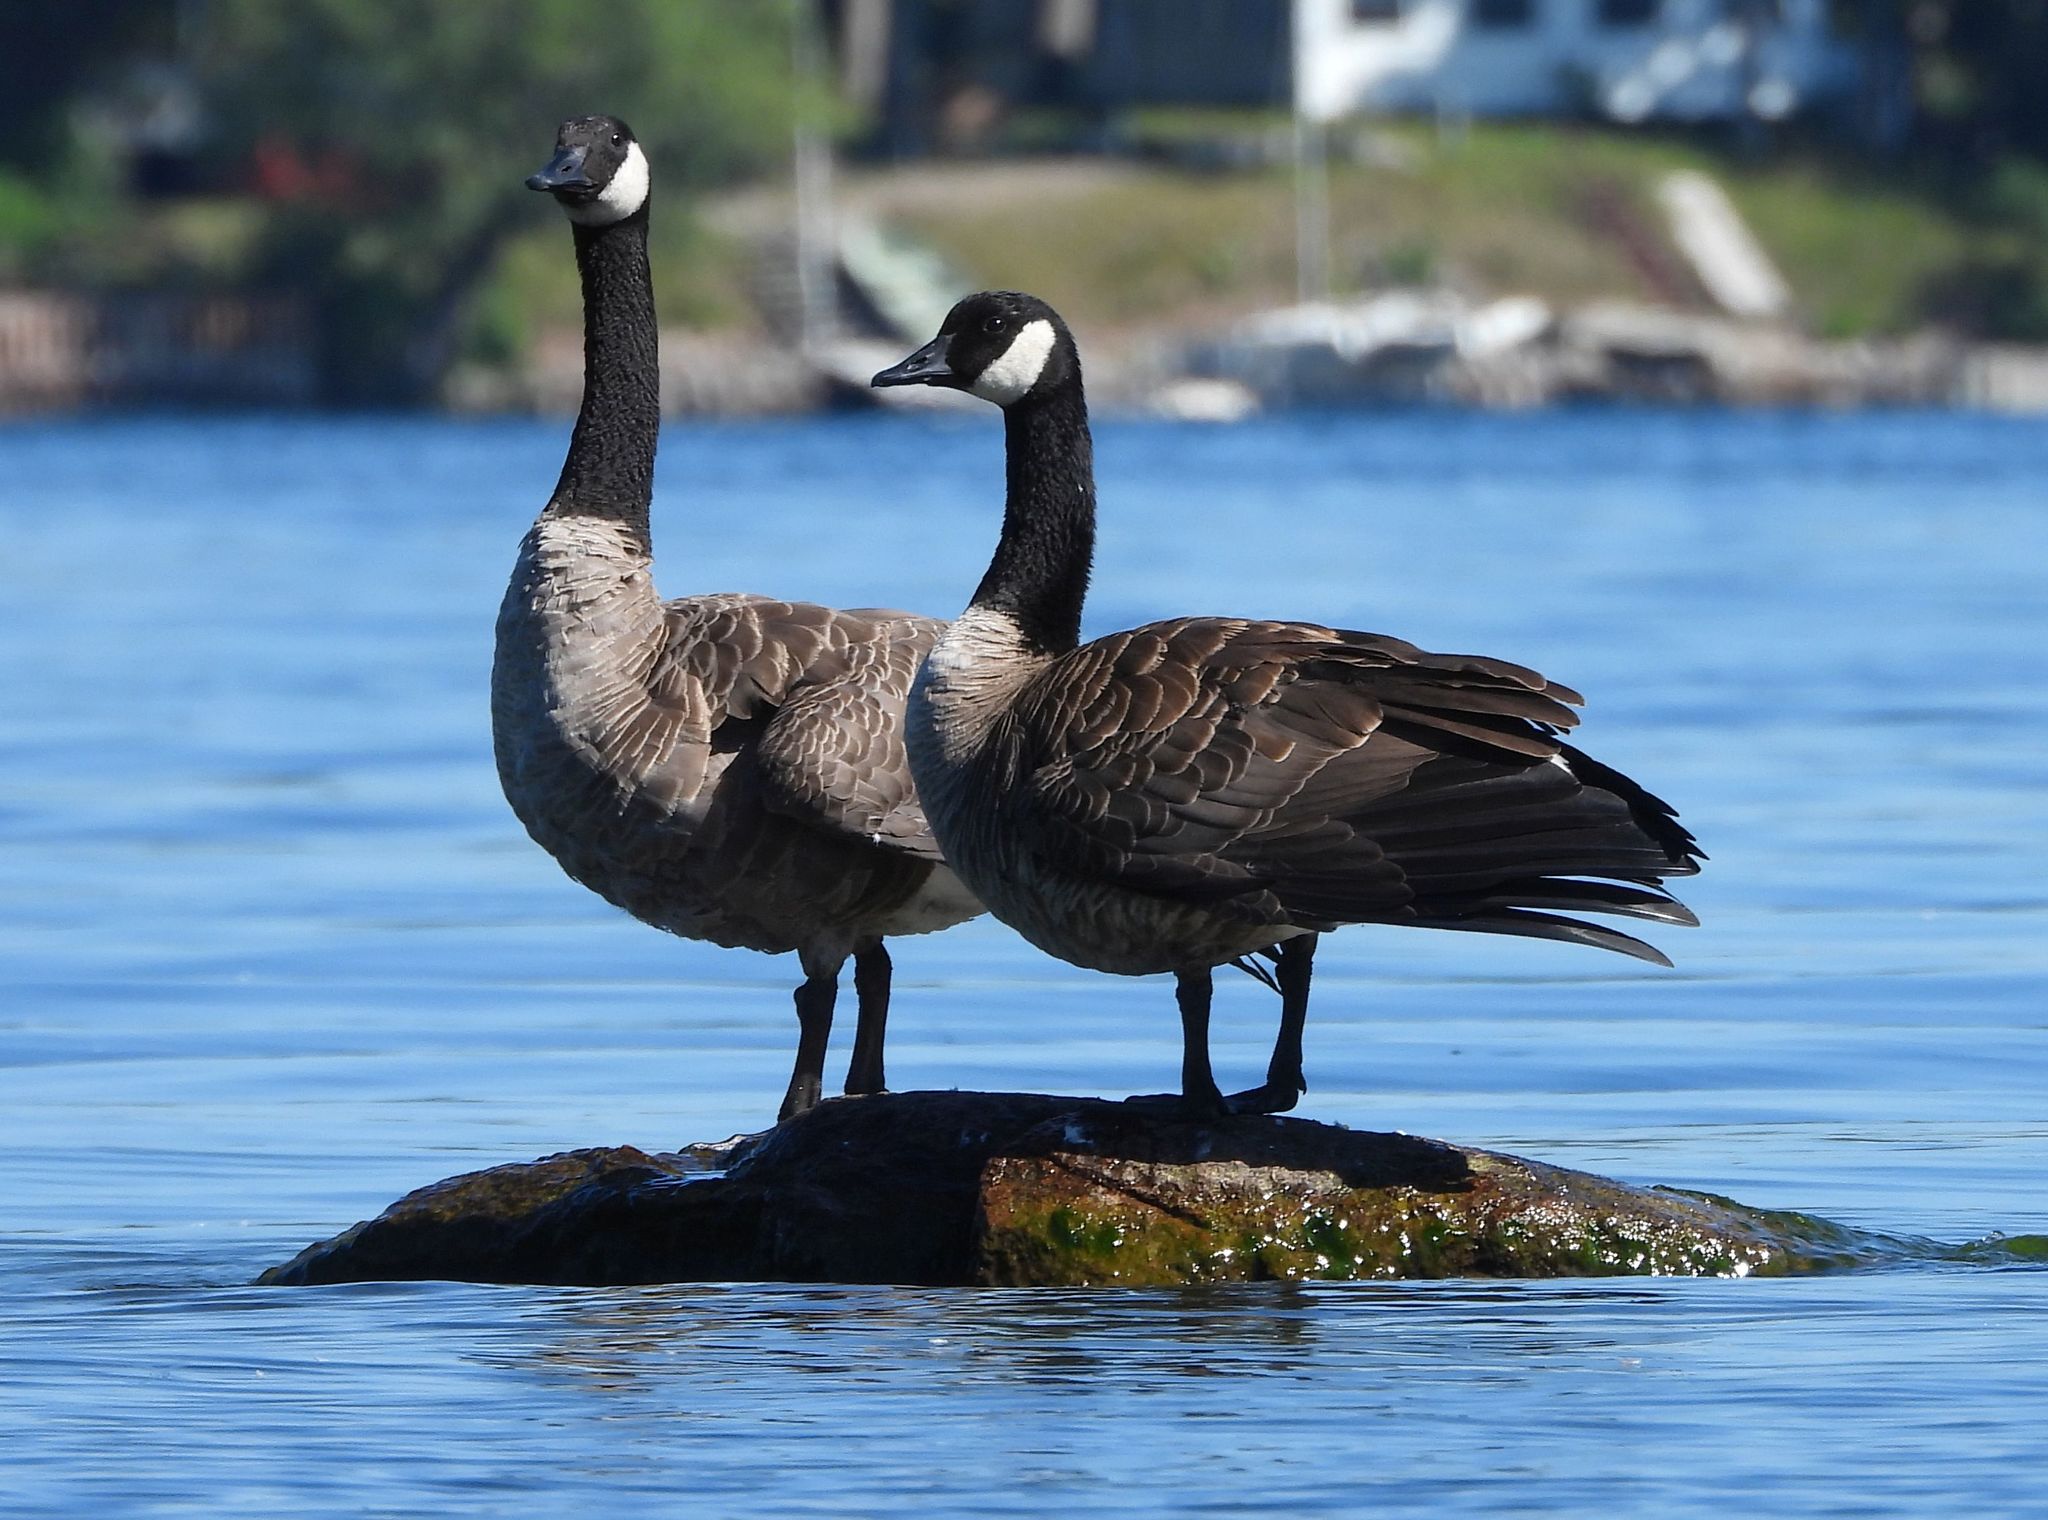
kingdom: Animalia
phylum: Chordata
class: Aves
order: Anseriformes
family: Anatidae
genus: Branta
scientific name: Branta canadensis
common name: Canada goose
